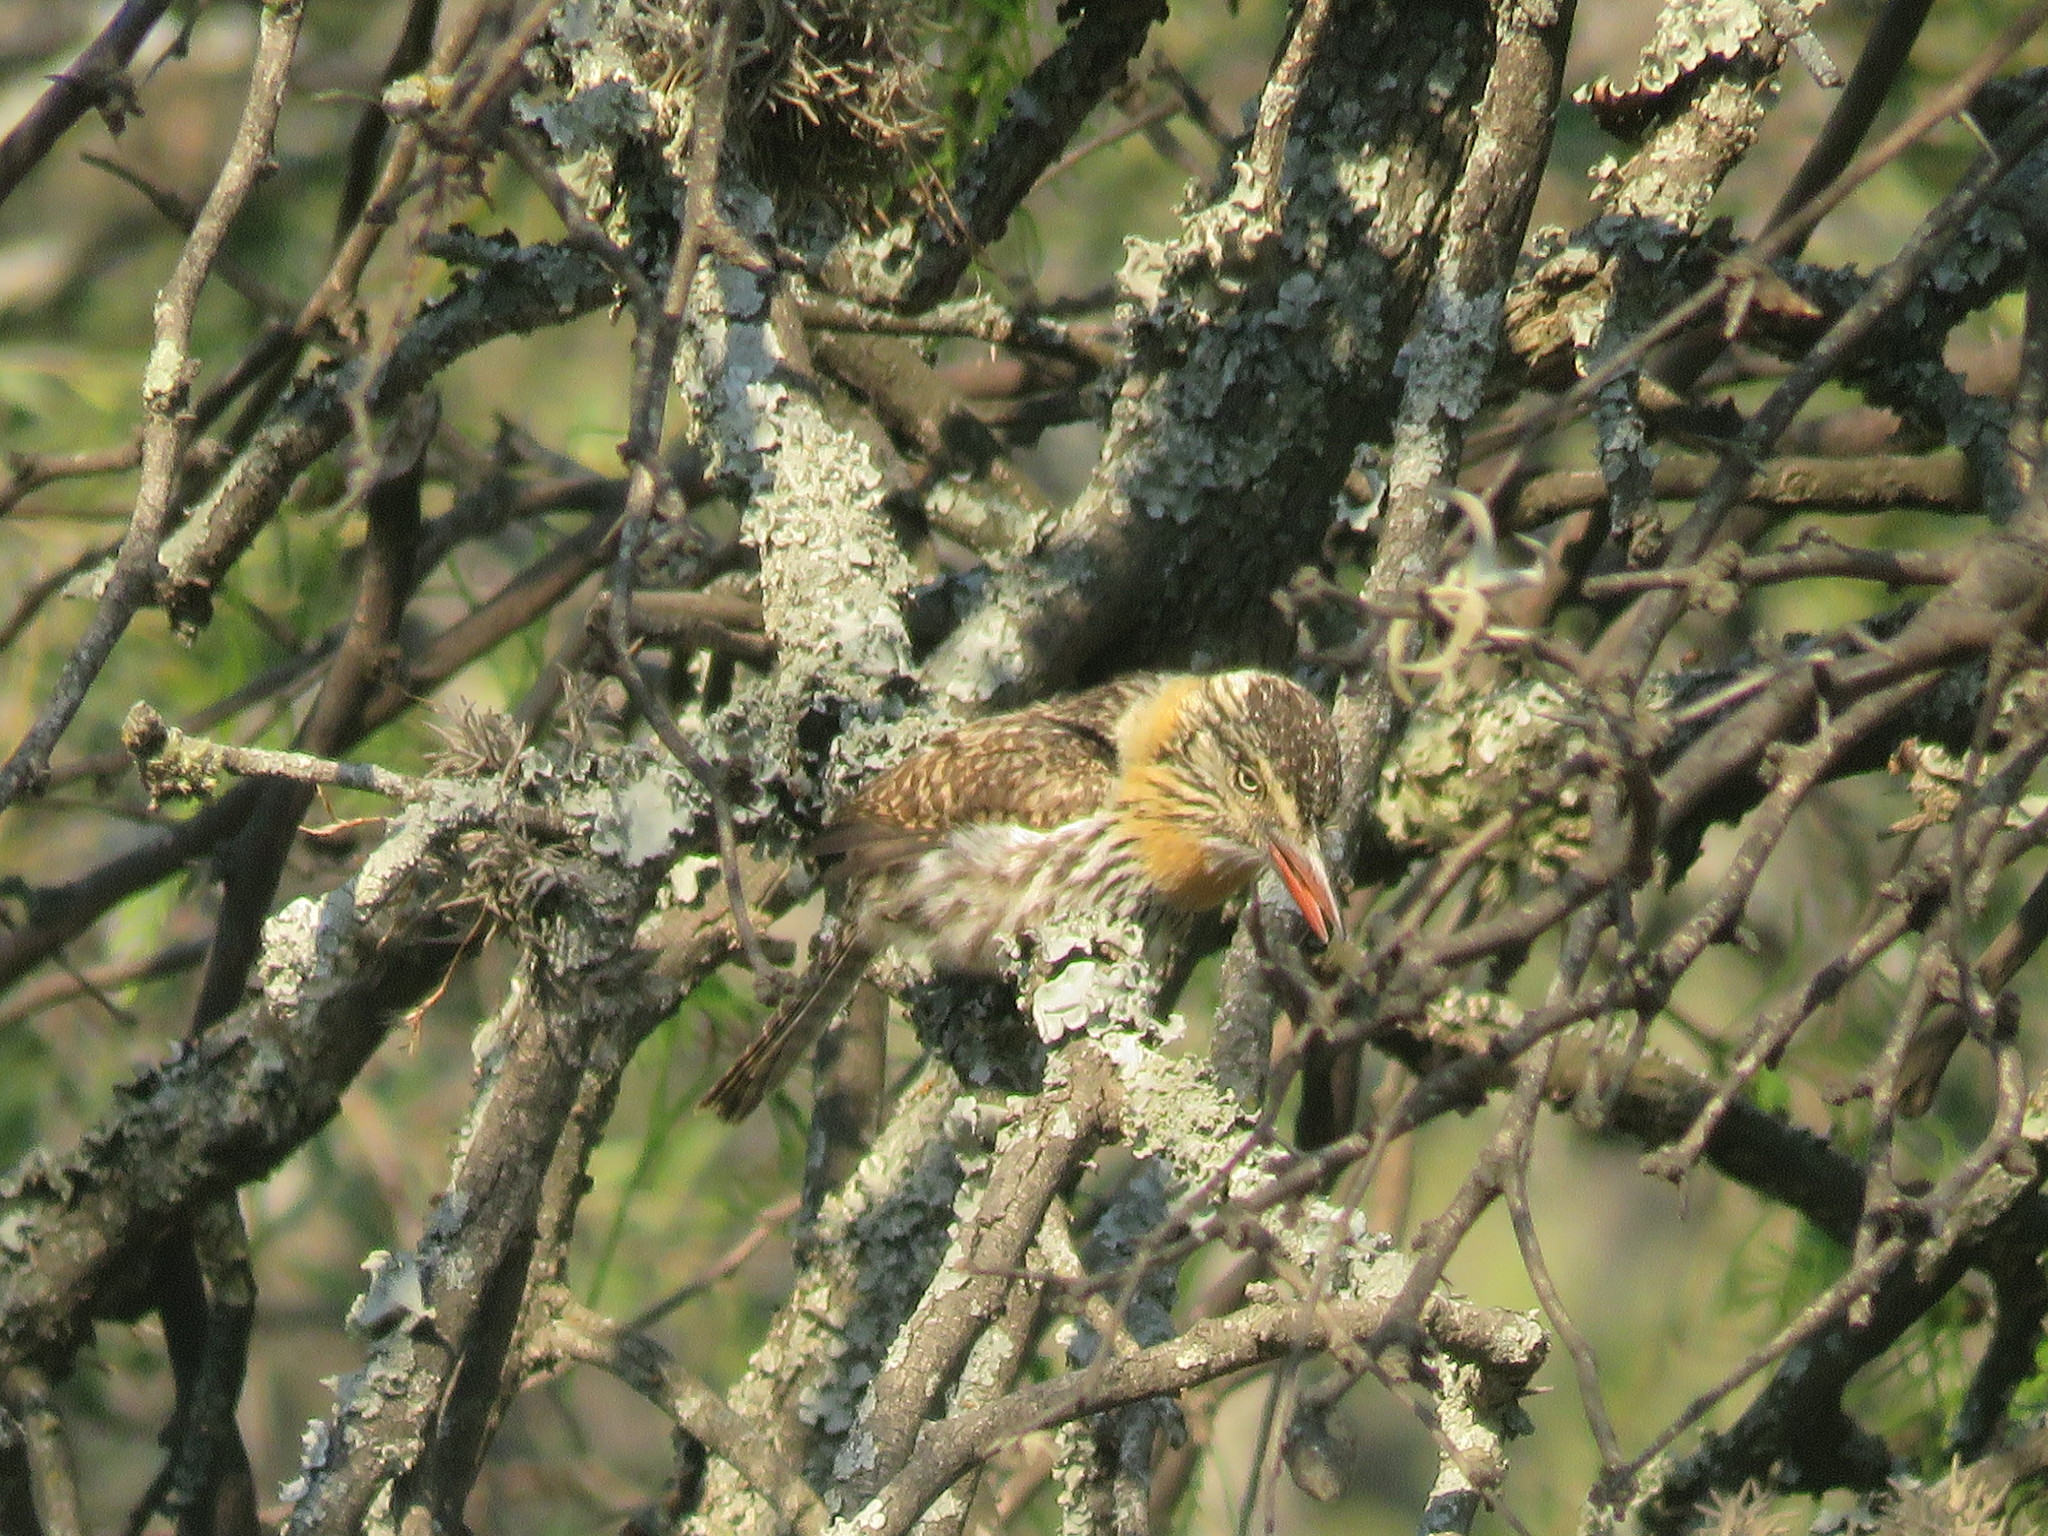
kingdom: Animalia
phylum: Chordata
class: Aves
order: Piciformes
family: Bucconidae
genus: Nystalus
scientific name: Nystalus maculatus
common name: Caatinga puffbird
